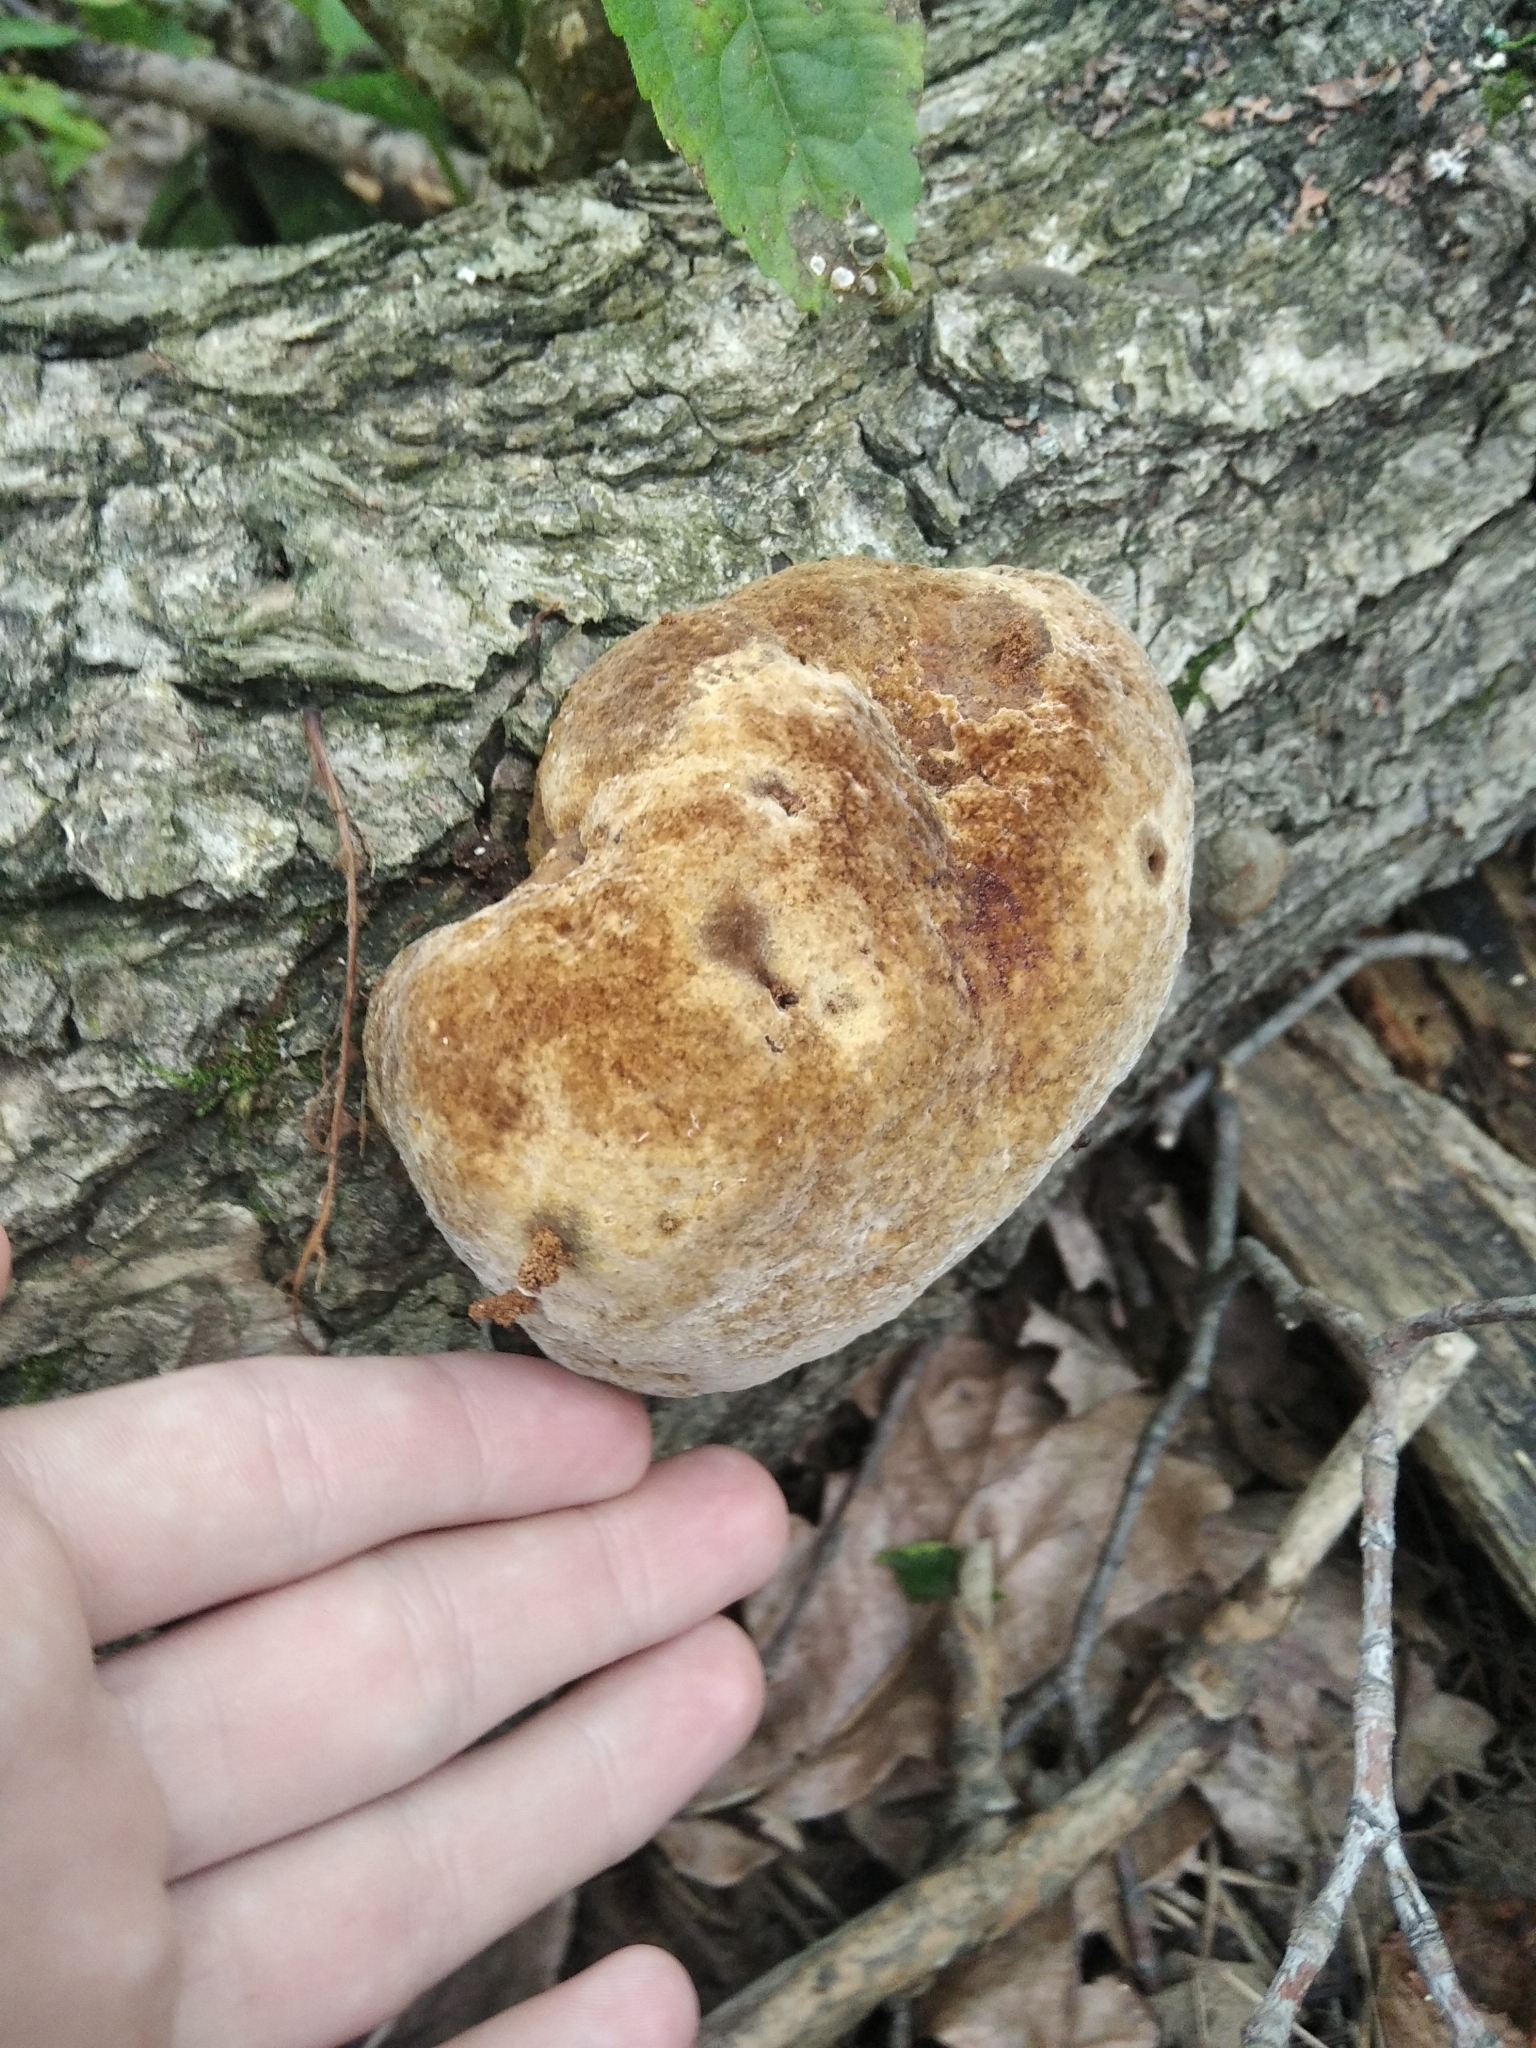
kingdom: Fungi
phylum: Basidiomycota
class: Agaricomycetes
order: Hymenochaetales
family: Hymenochaetaceae
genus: Fomitiporia
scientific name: Fomitiporia robusta
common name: Robust bracket
